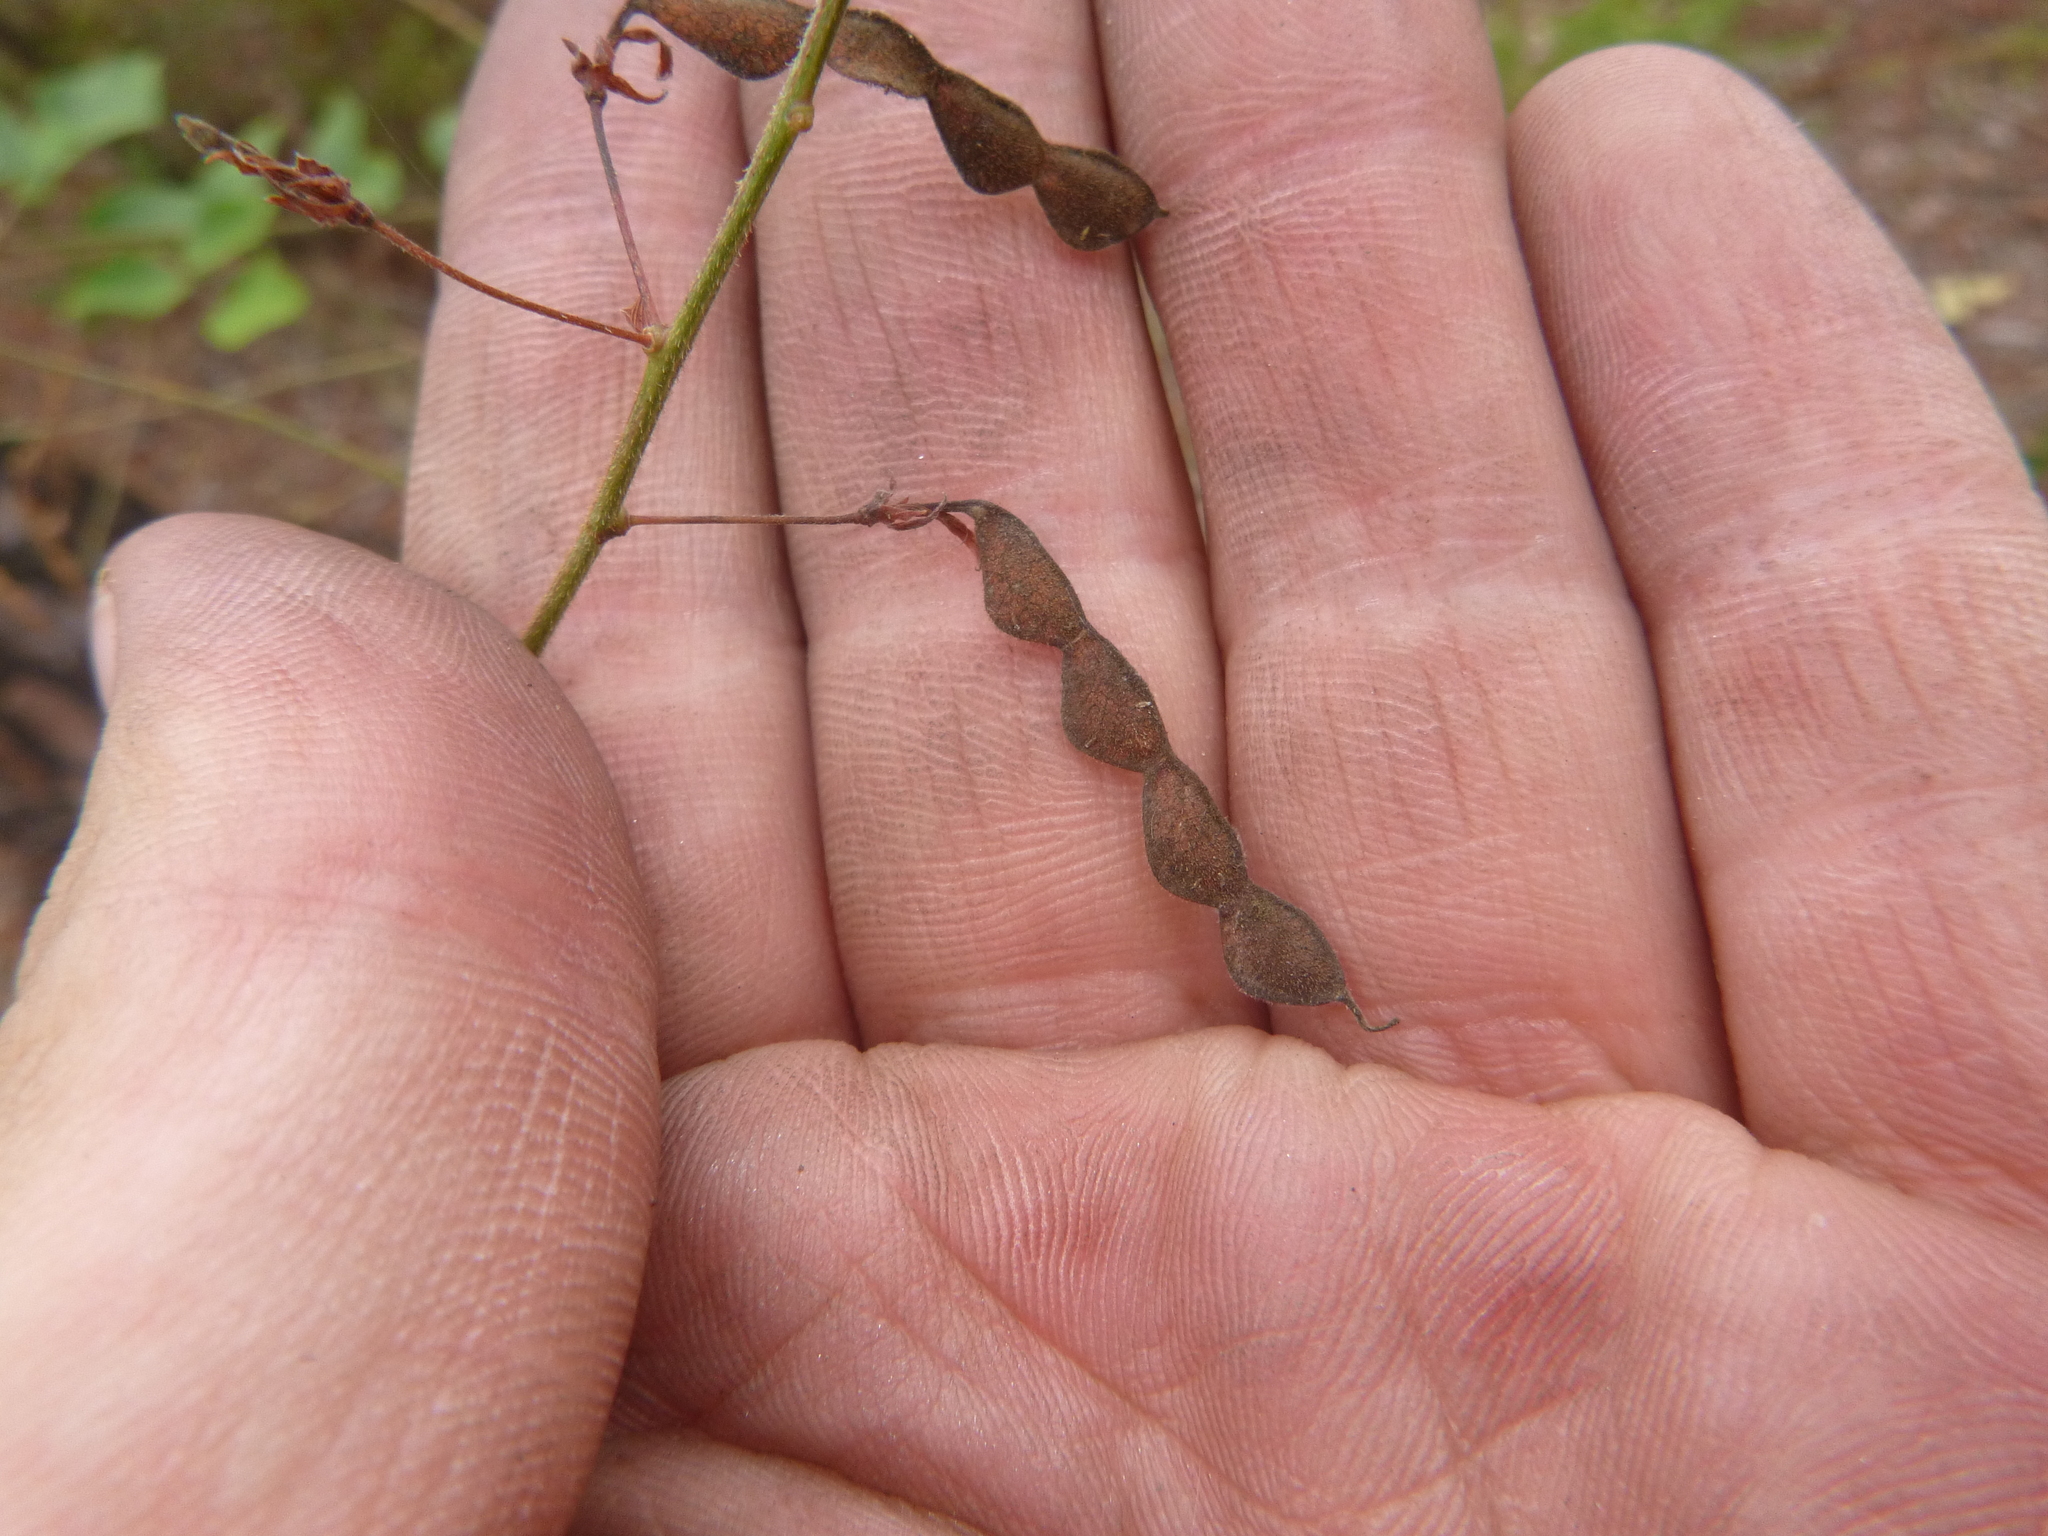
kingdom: Plantae
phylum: Tracheophyta
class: Magnoliopsida
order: Fabales
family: Fabaceae
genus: Desmodium
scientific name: Desmodium laevigatum
